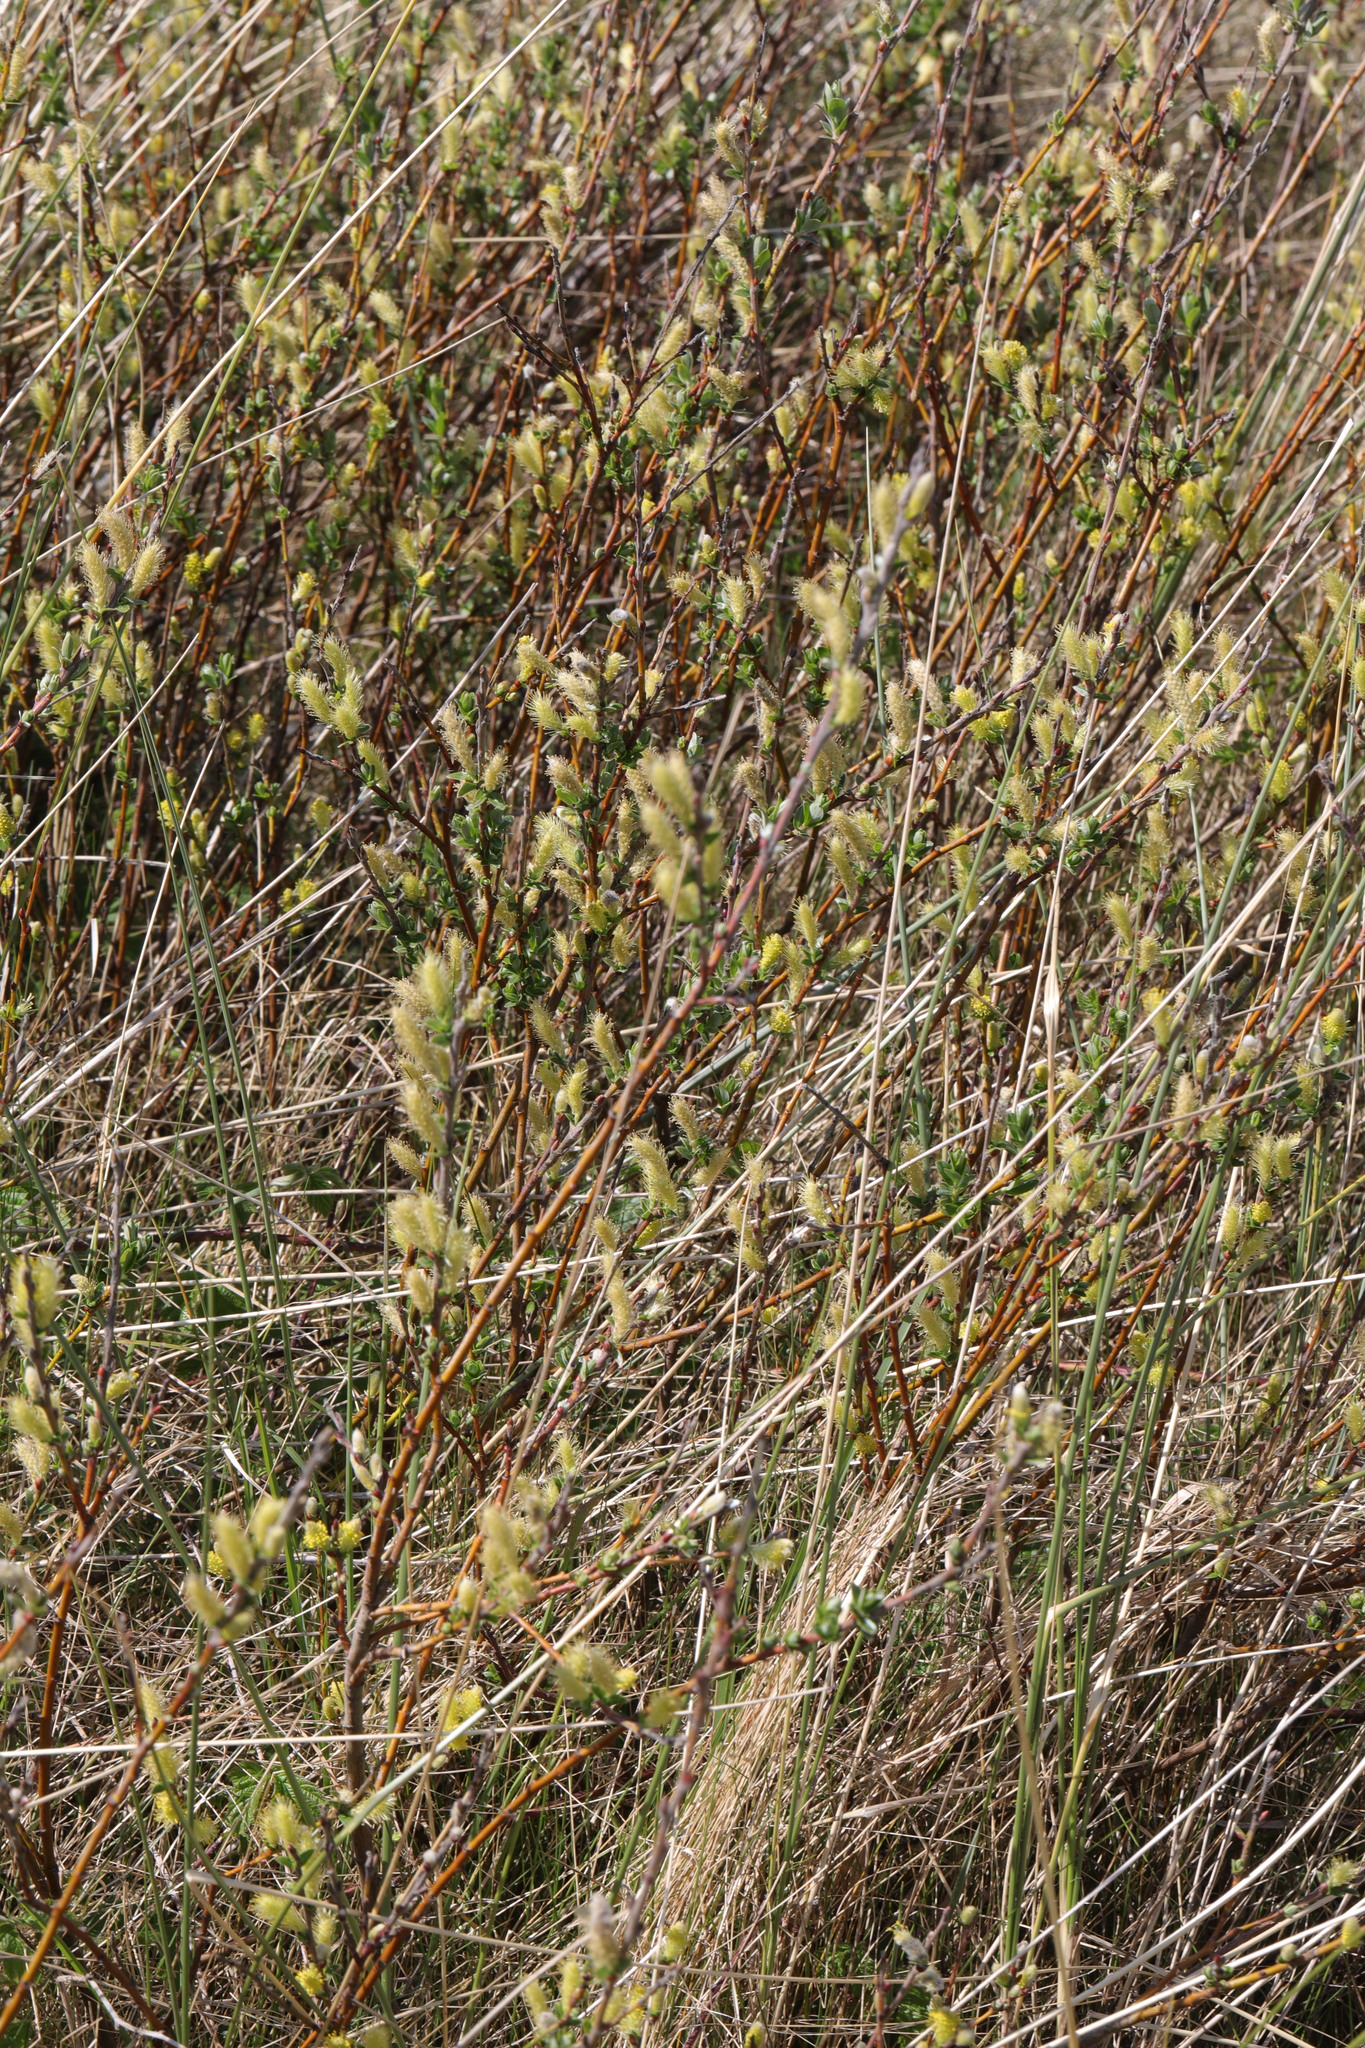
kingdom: Plantae
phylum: Tracheophyta
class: Magnoliopsida
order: Malpighiales
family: Salicaceae
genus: Salix
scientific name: Salix repens
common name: Creeping willow
